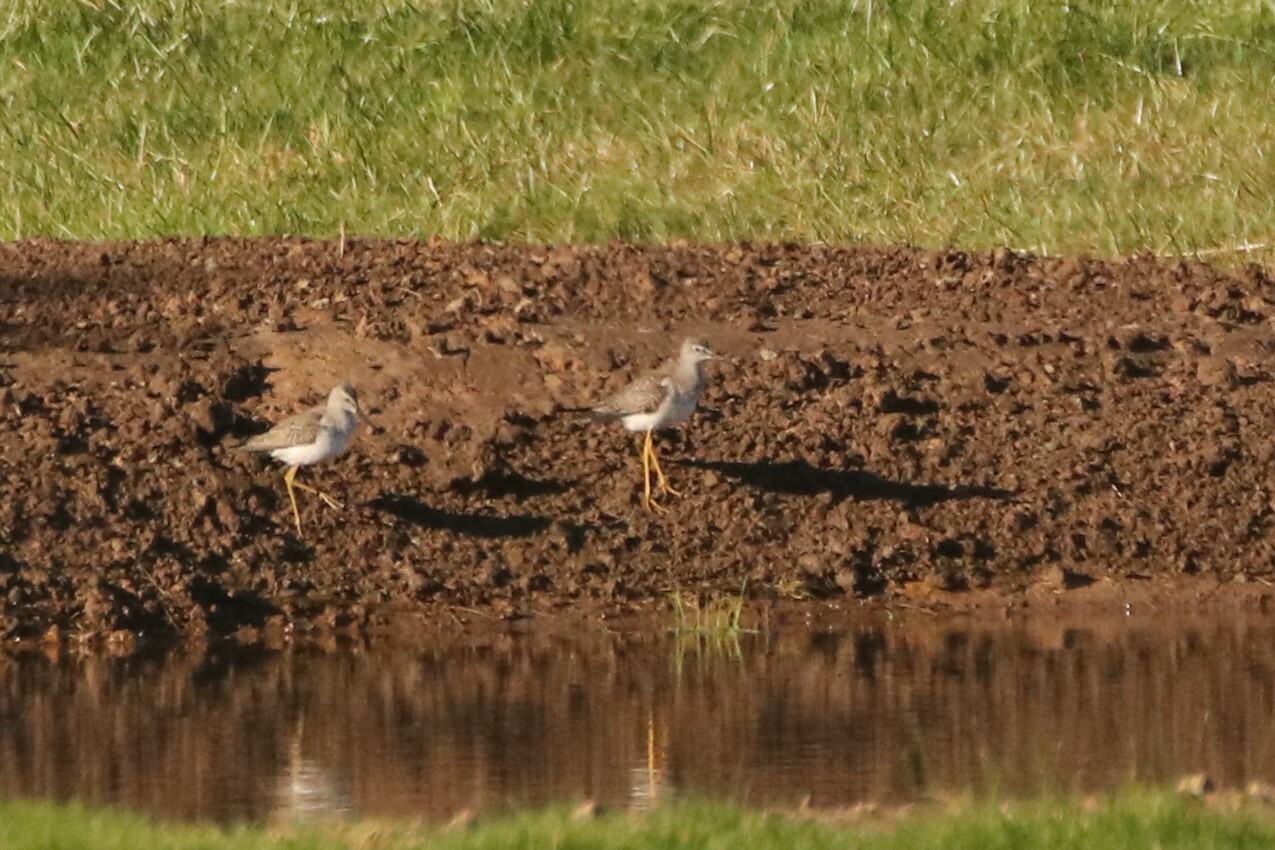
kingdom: Animalia
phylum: Chordata
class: Aves
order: Charadriiformes
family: Scolopacidae
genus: Tringa
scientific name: Tringa melanoleuca
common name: Greater yellowlegs
